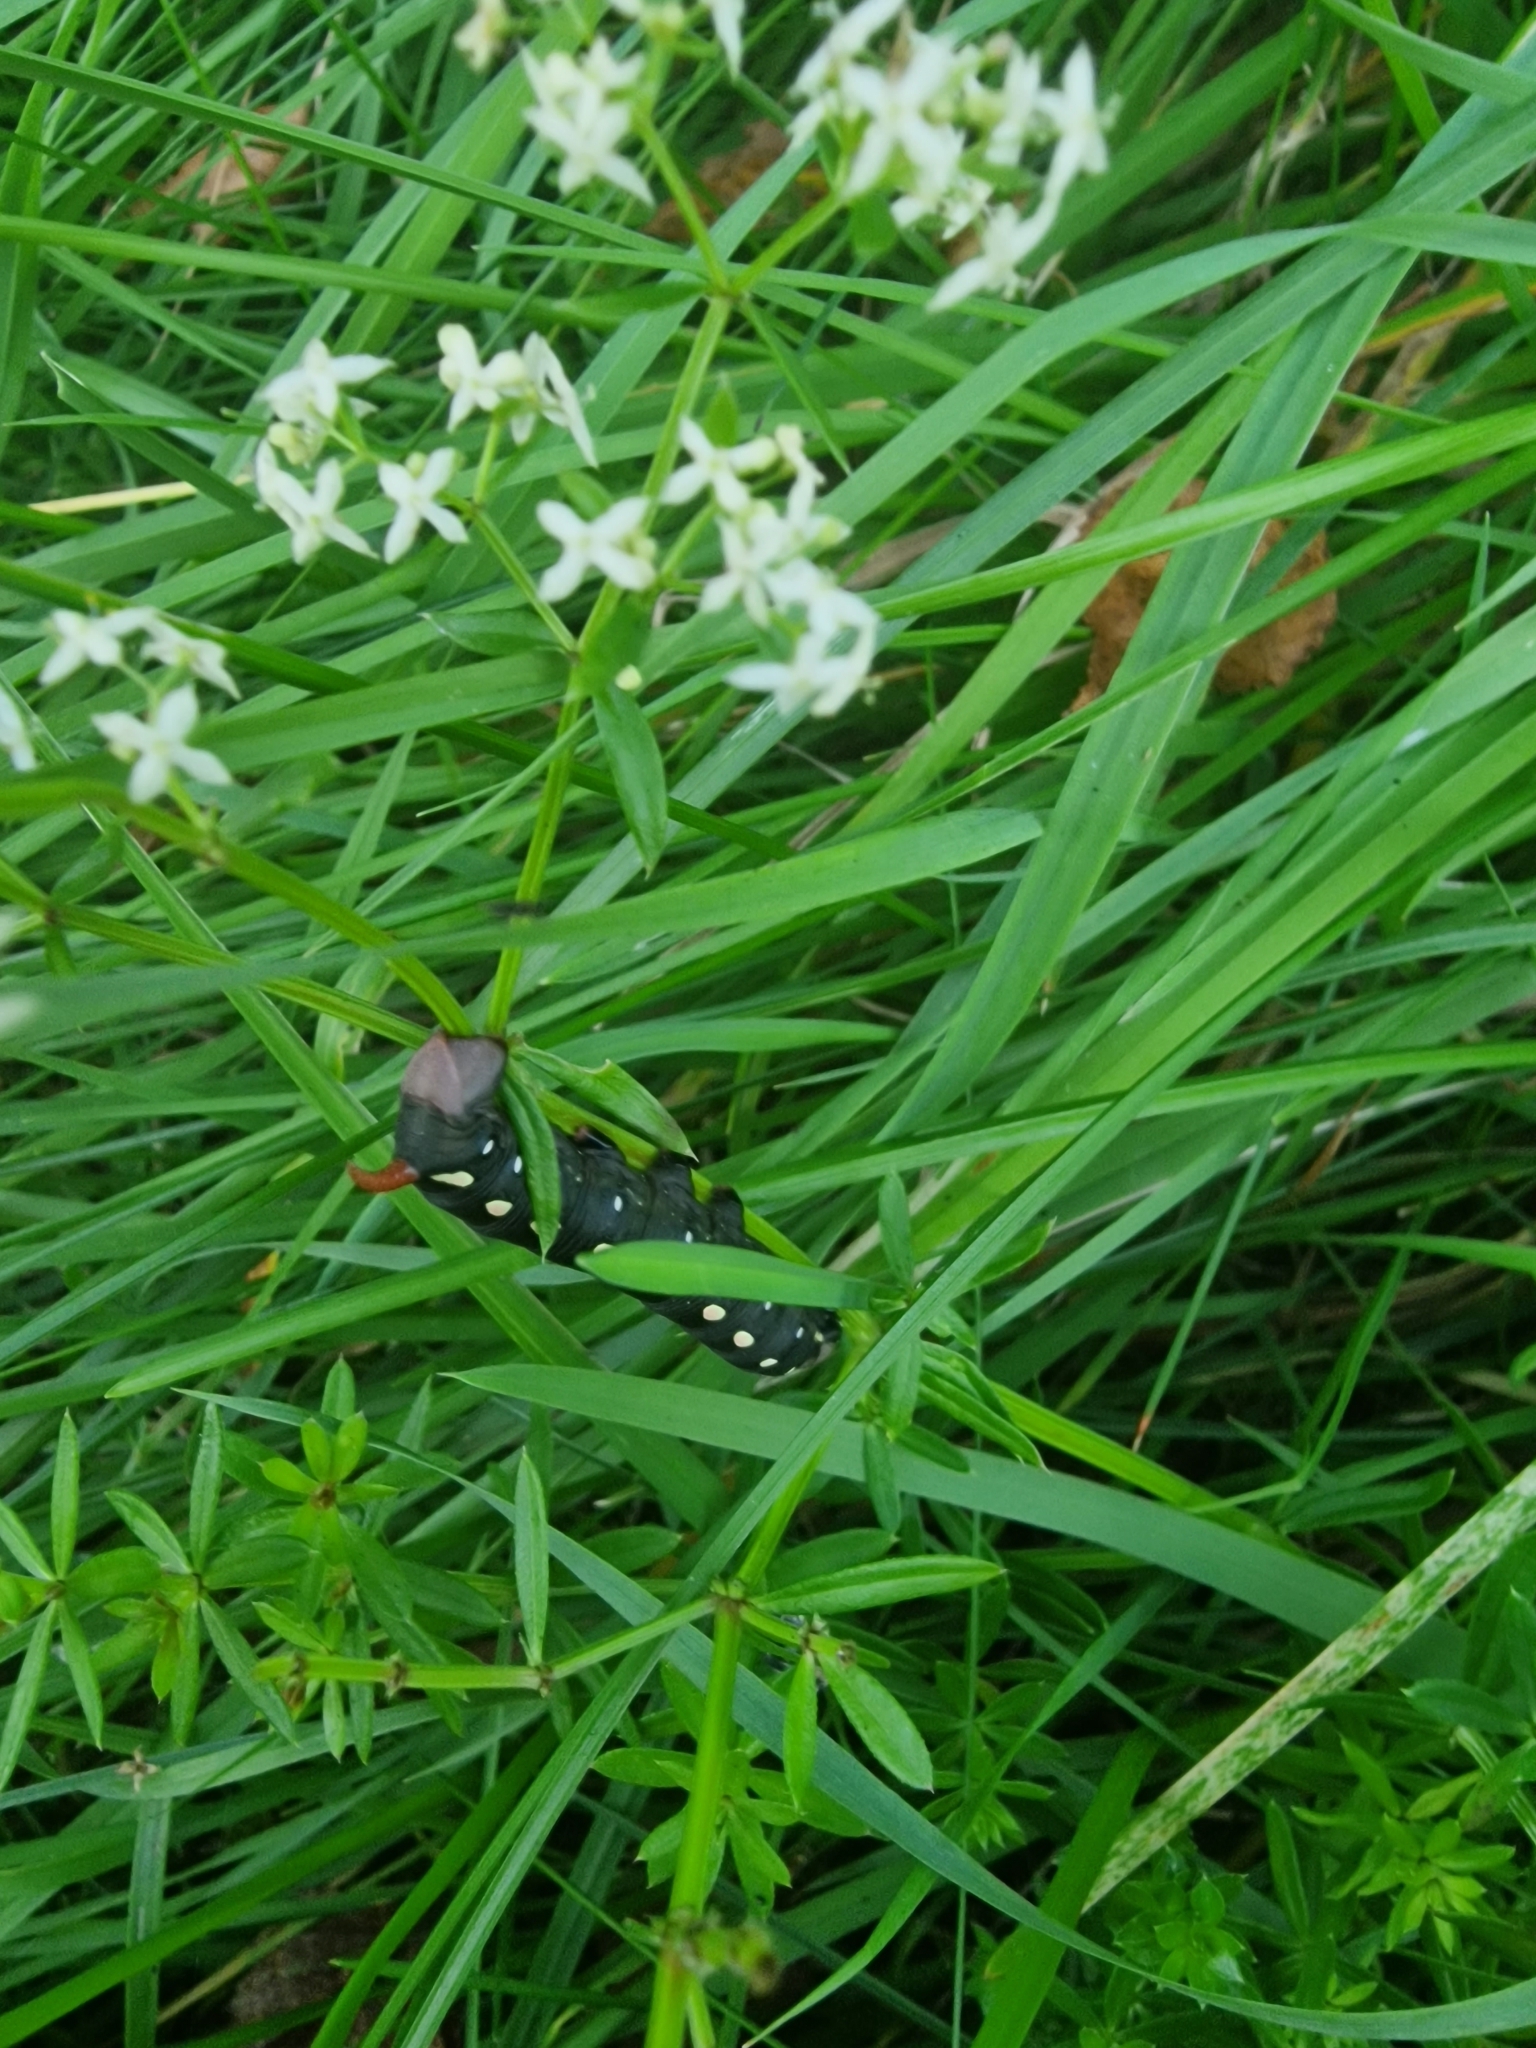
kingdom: Animalia
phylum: Arthropoda
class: Insecta
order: Lepidoptera
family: Sphingidae
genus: Hyles
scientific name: Hyles gallii
